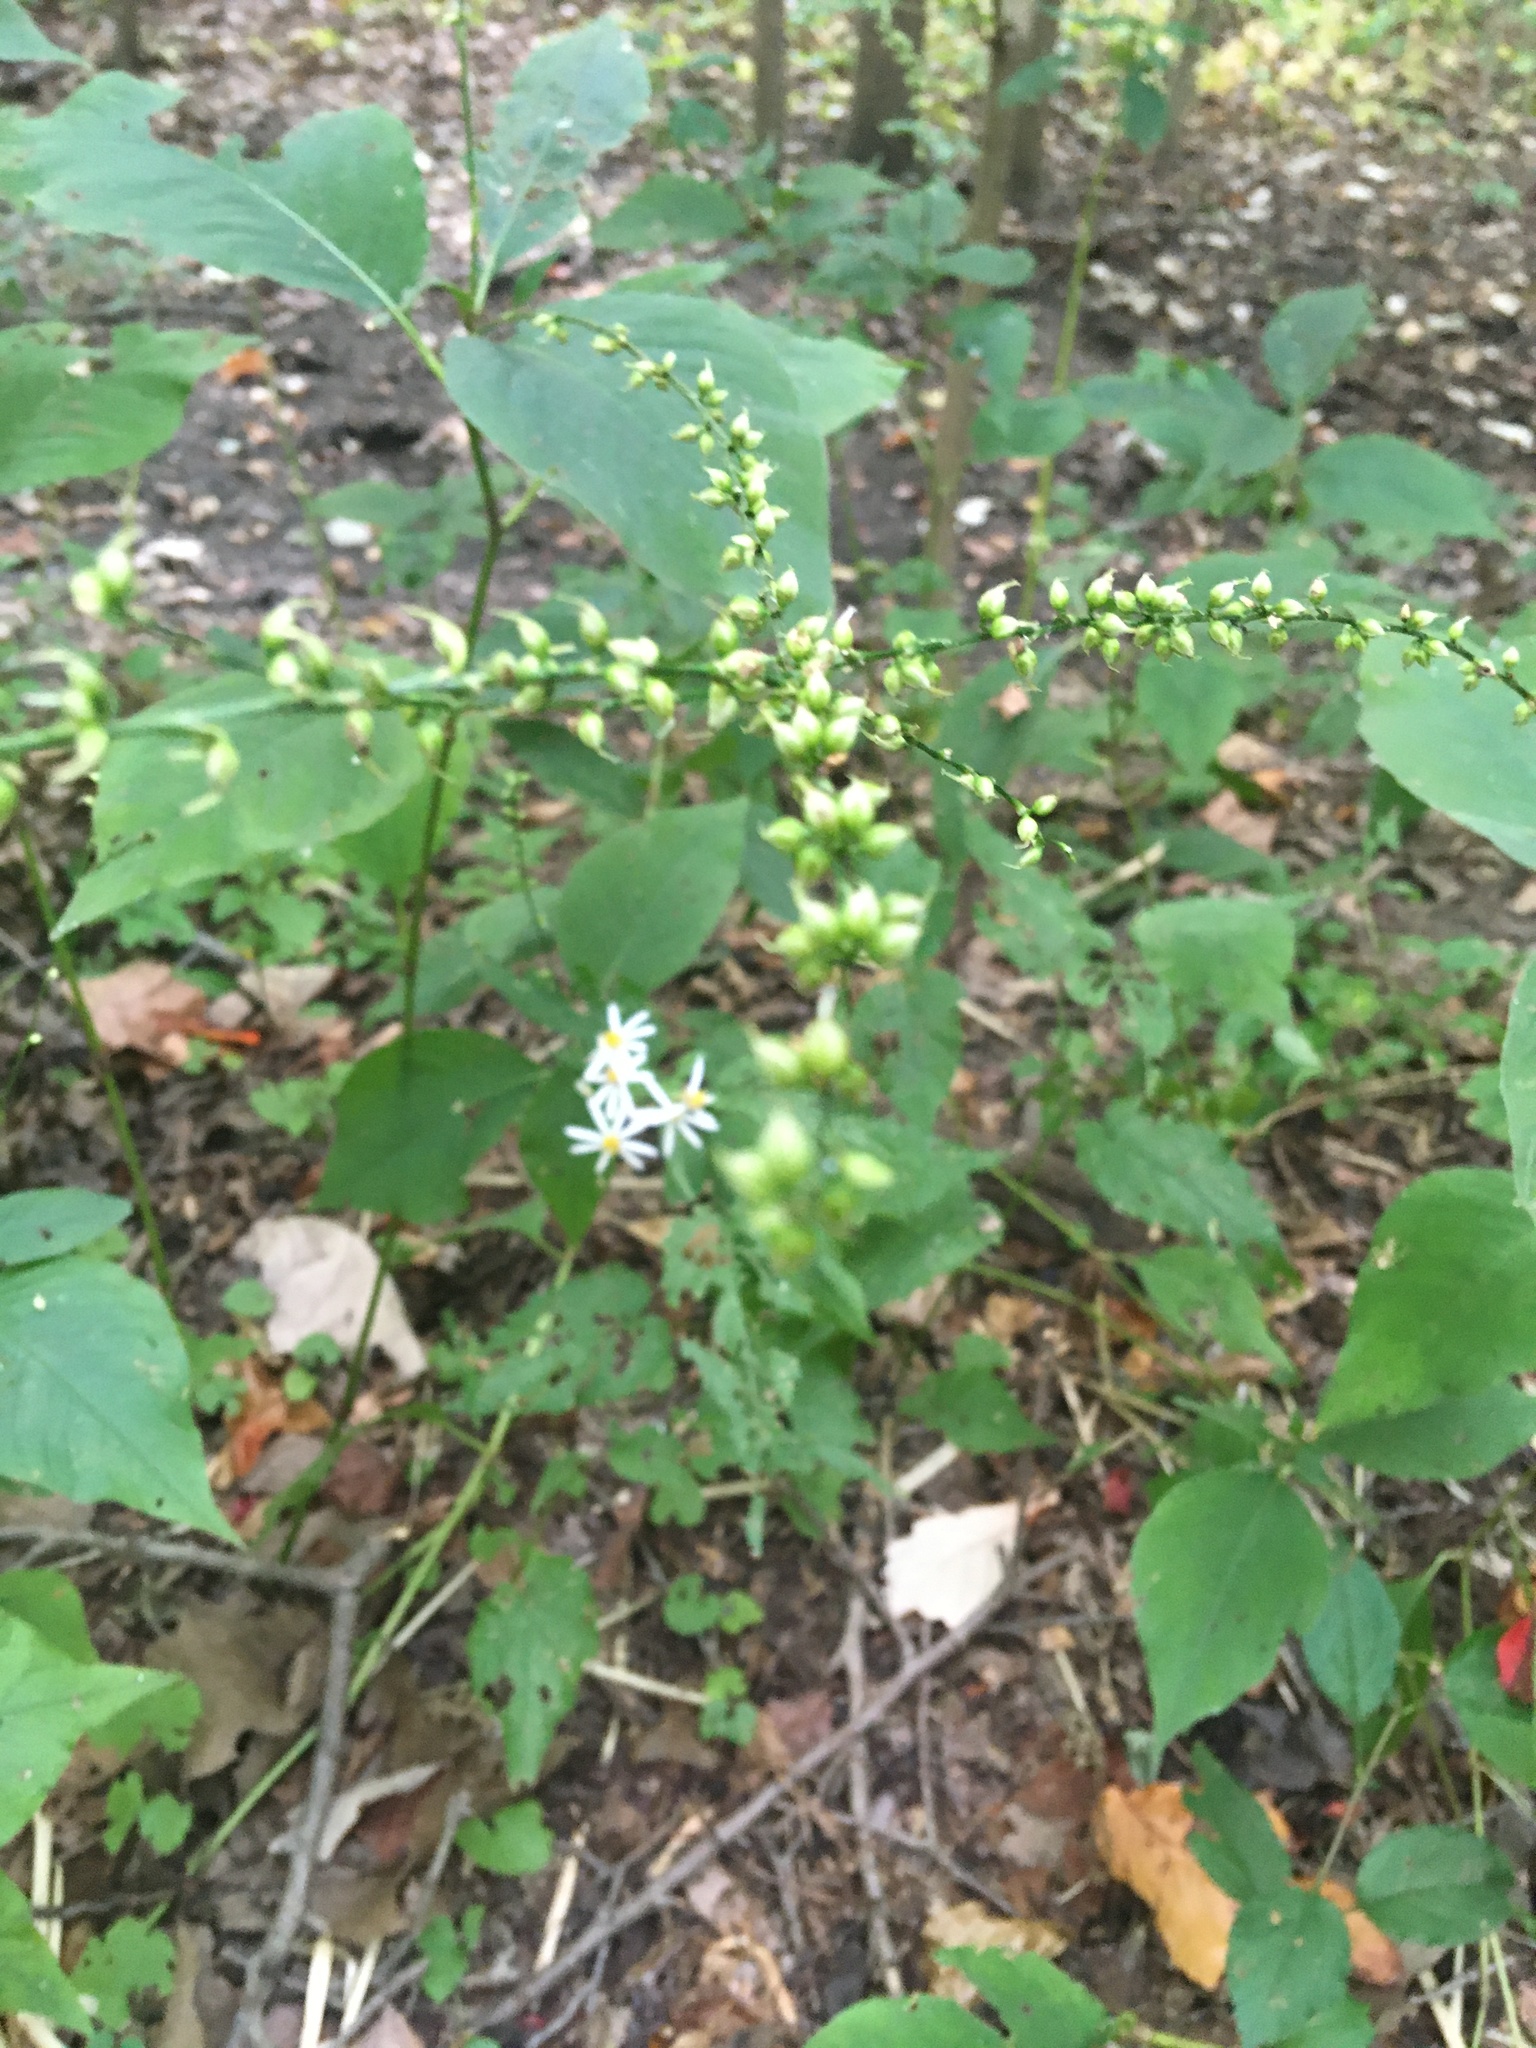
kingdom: Plantae
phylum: Tracheophyta
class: Magnoliopsida
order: Caryophyllales
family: Polygonaceae
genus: Persicaria
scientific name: Persicaria virginiana
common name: Jumpseed
